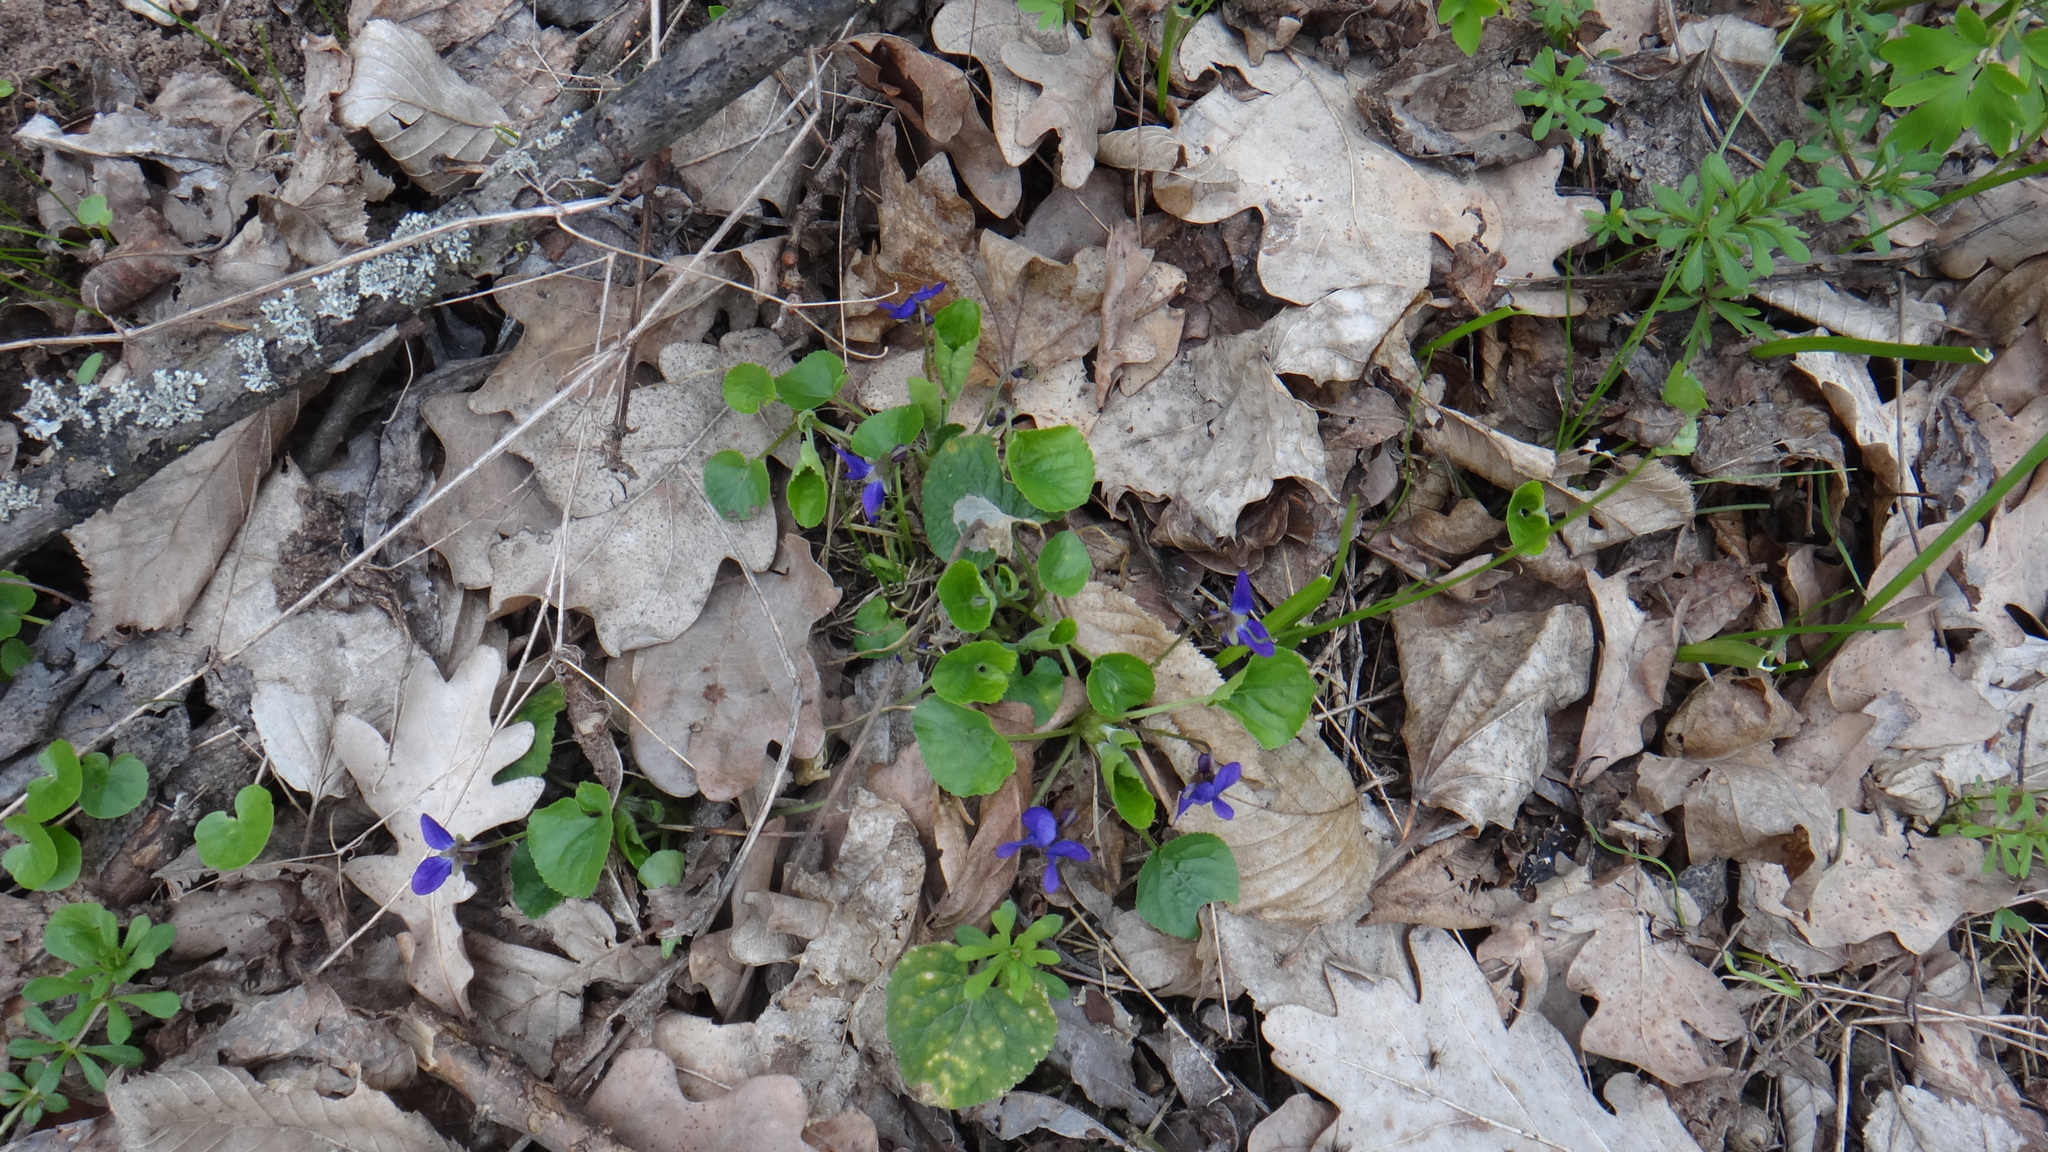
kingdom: Plantae
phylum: Tracheophyta
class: Magnoliopsida
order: Malpighiales
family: Violaceae
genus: Viola
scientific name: Viola odorata
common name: Sweet violet
